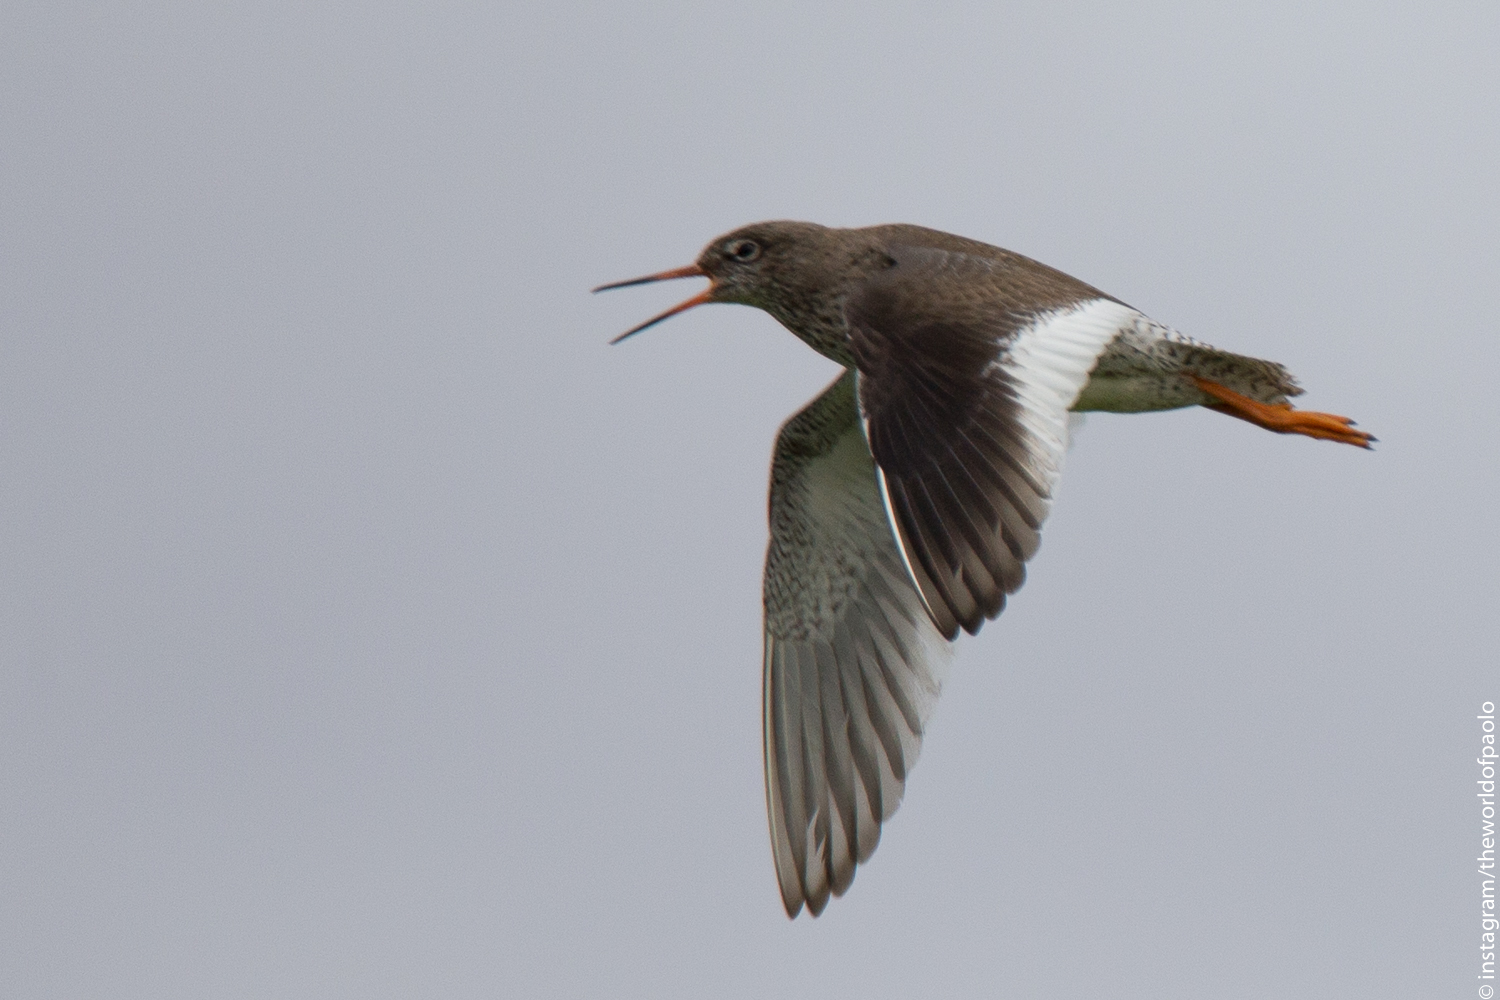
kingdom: Animalia
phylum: Chordata
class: Aves
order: Charadriiformes
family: Scolopacidae
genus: Tringa
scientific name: Tringa totanus
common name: Common redshank
